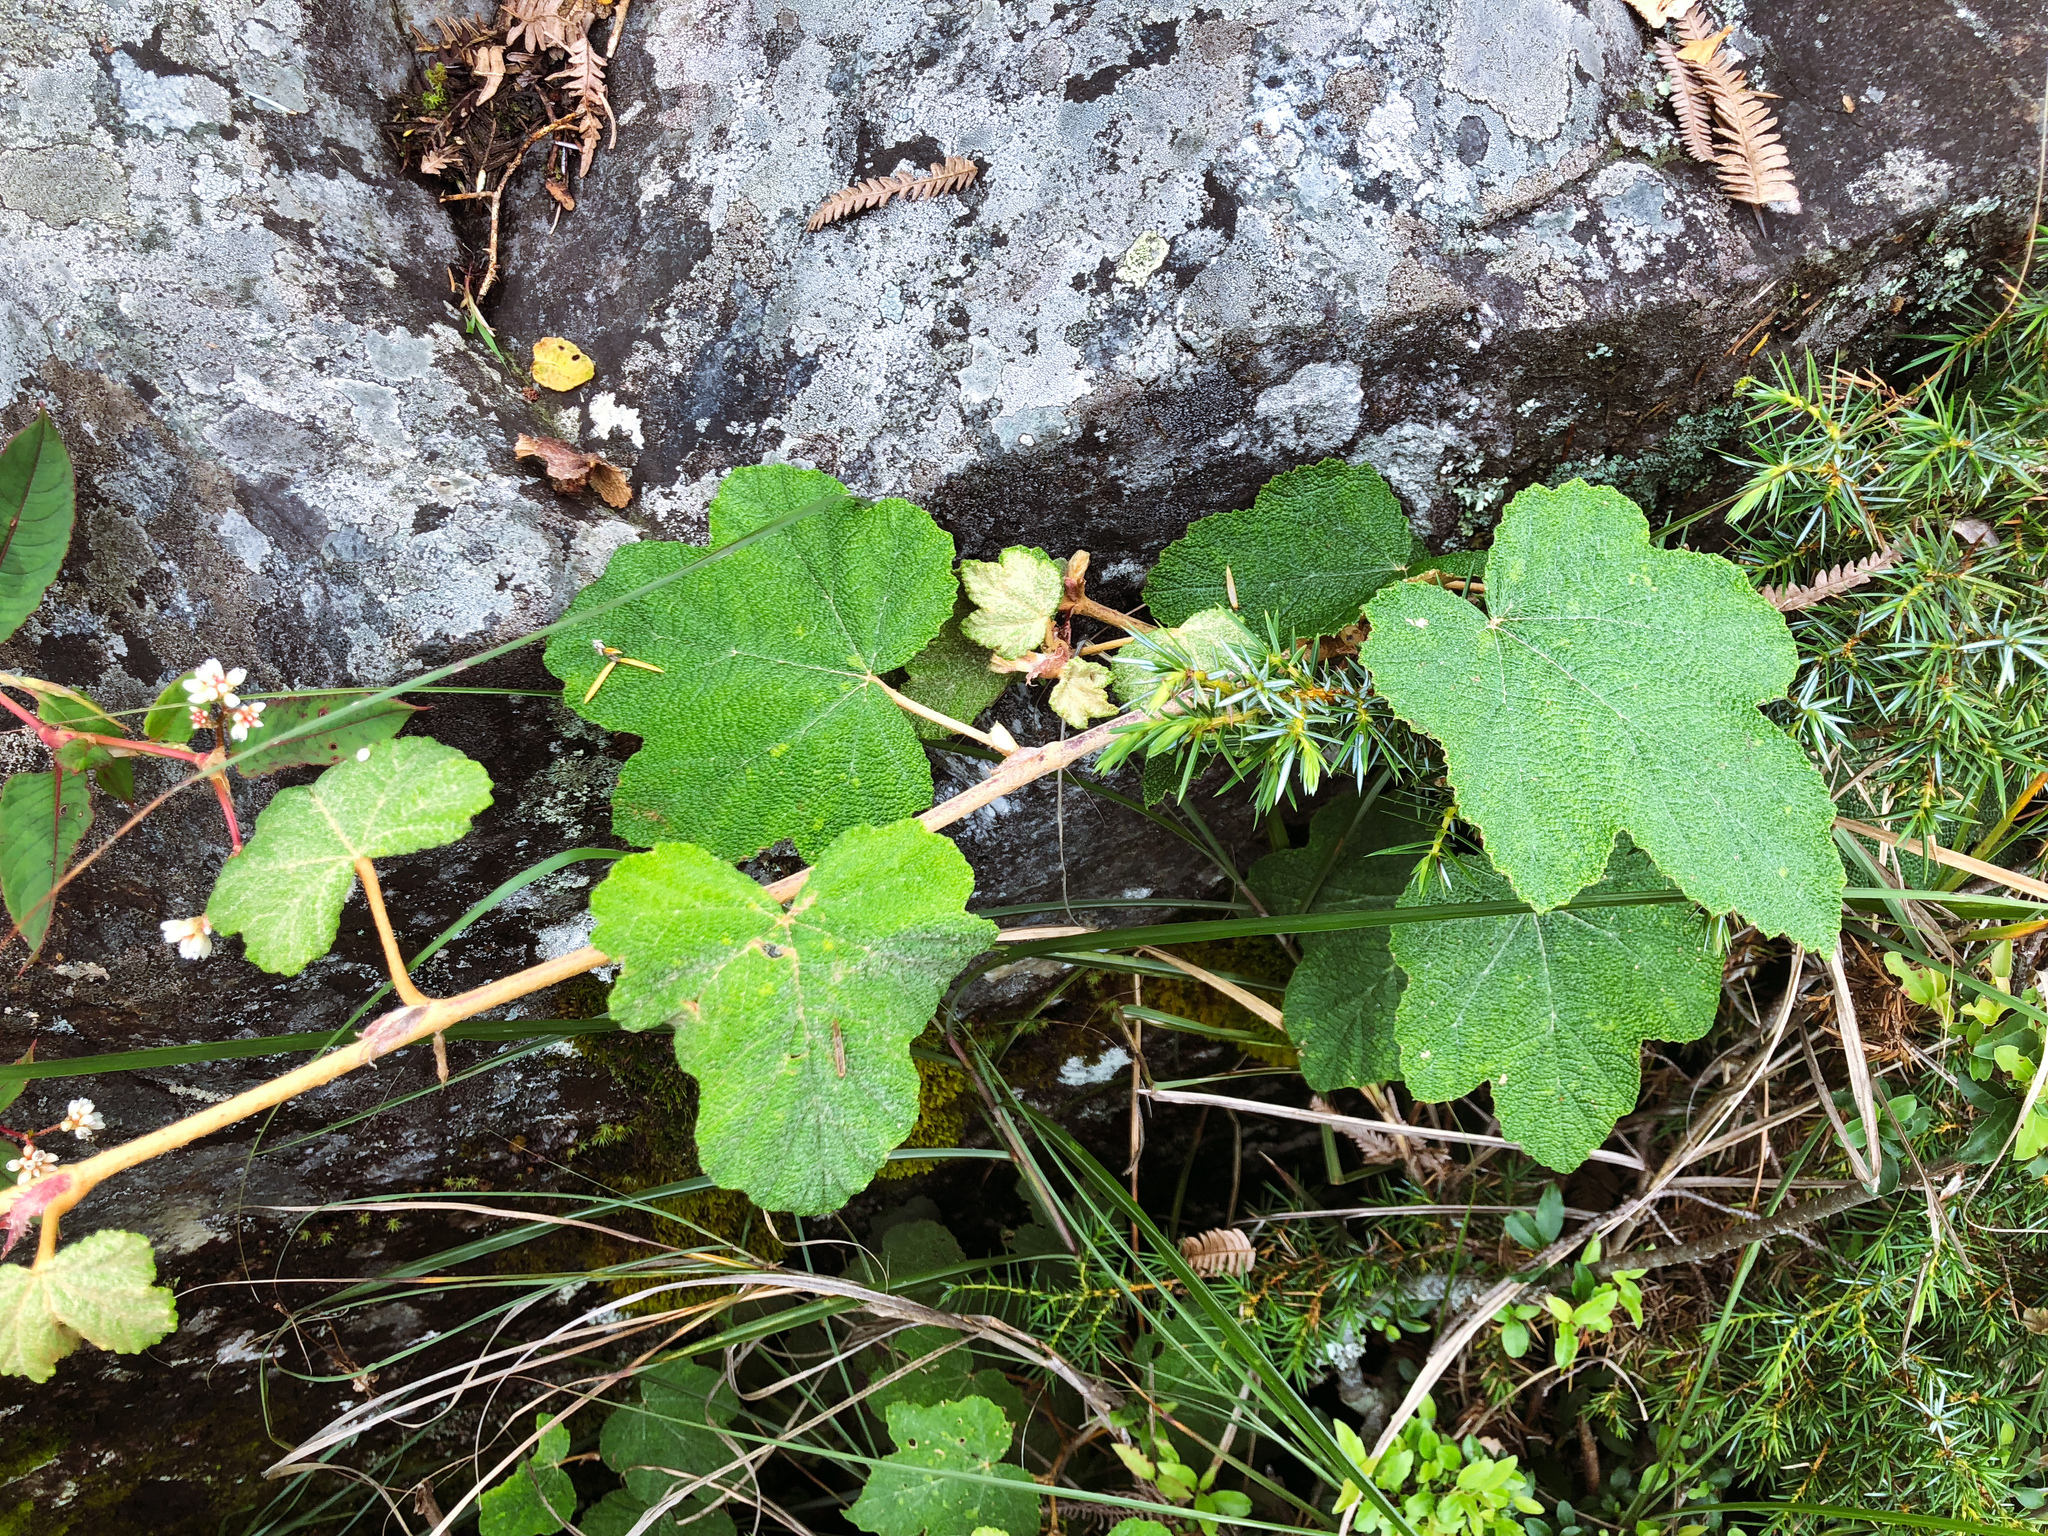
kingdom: Plantae
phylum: Tracheophyta
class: Magnoliopsida
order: Rosales
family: Rosaceae
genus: Rubus
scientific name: Rubus formosensis
